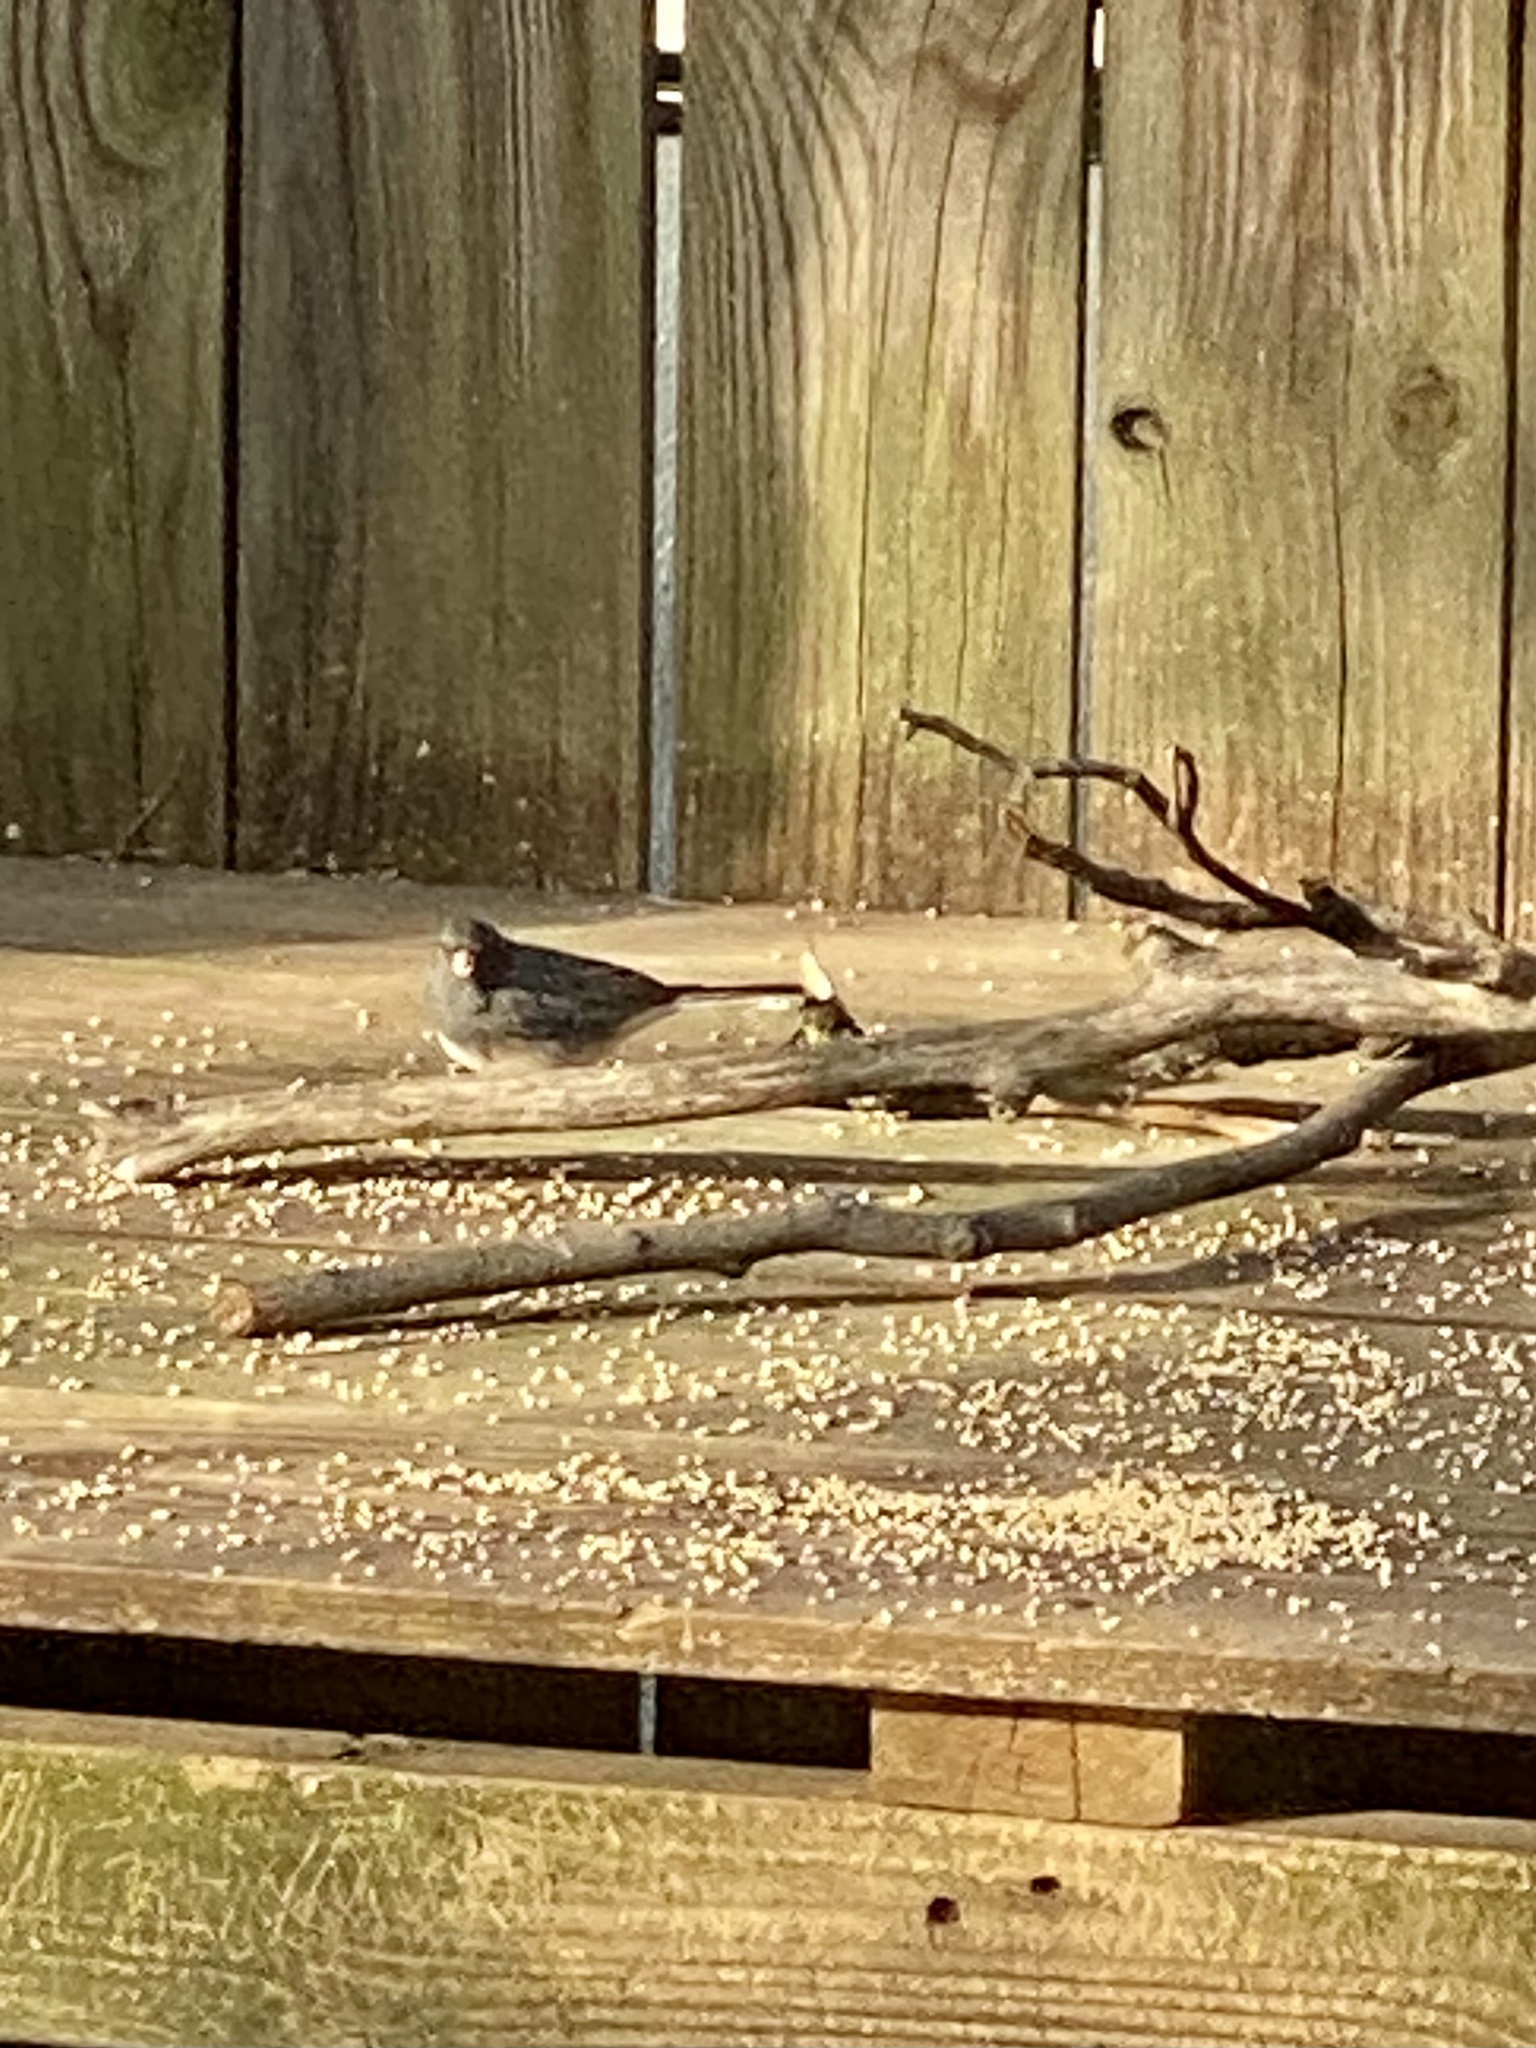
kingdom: Animalia
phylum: Chordata
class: Aves
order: Passeriformes
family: Passerellidae
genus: Junco
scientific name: Junco hyemalis
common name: Dark-eyed junco
